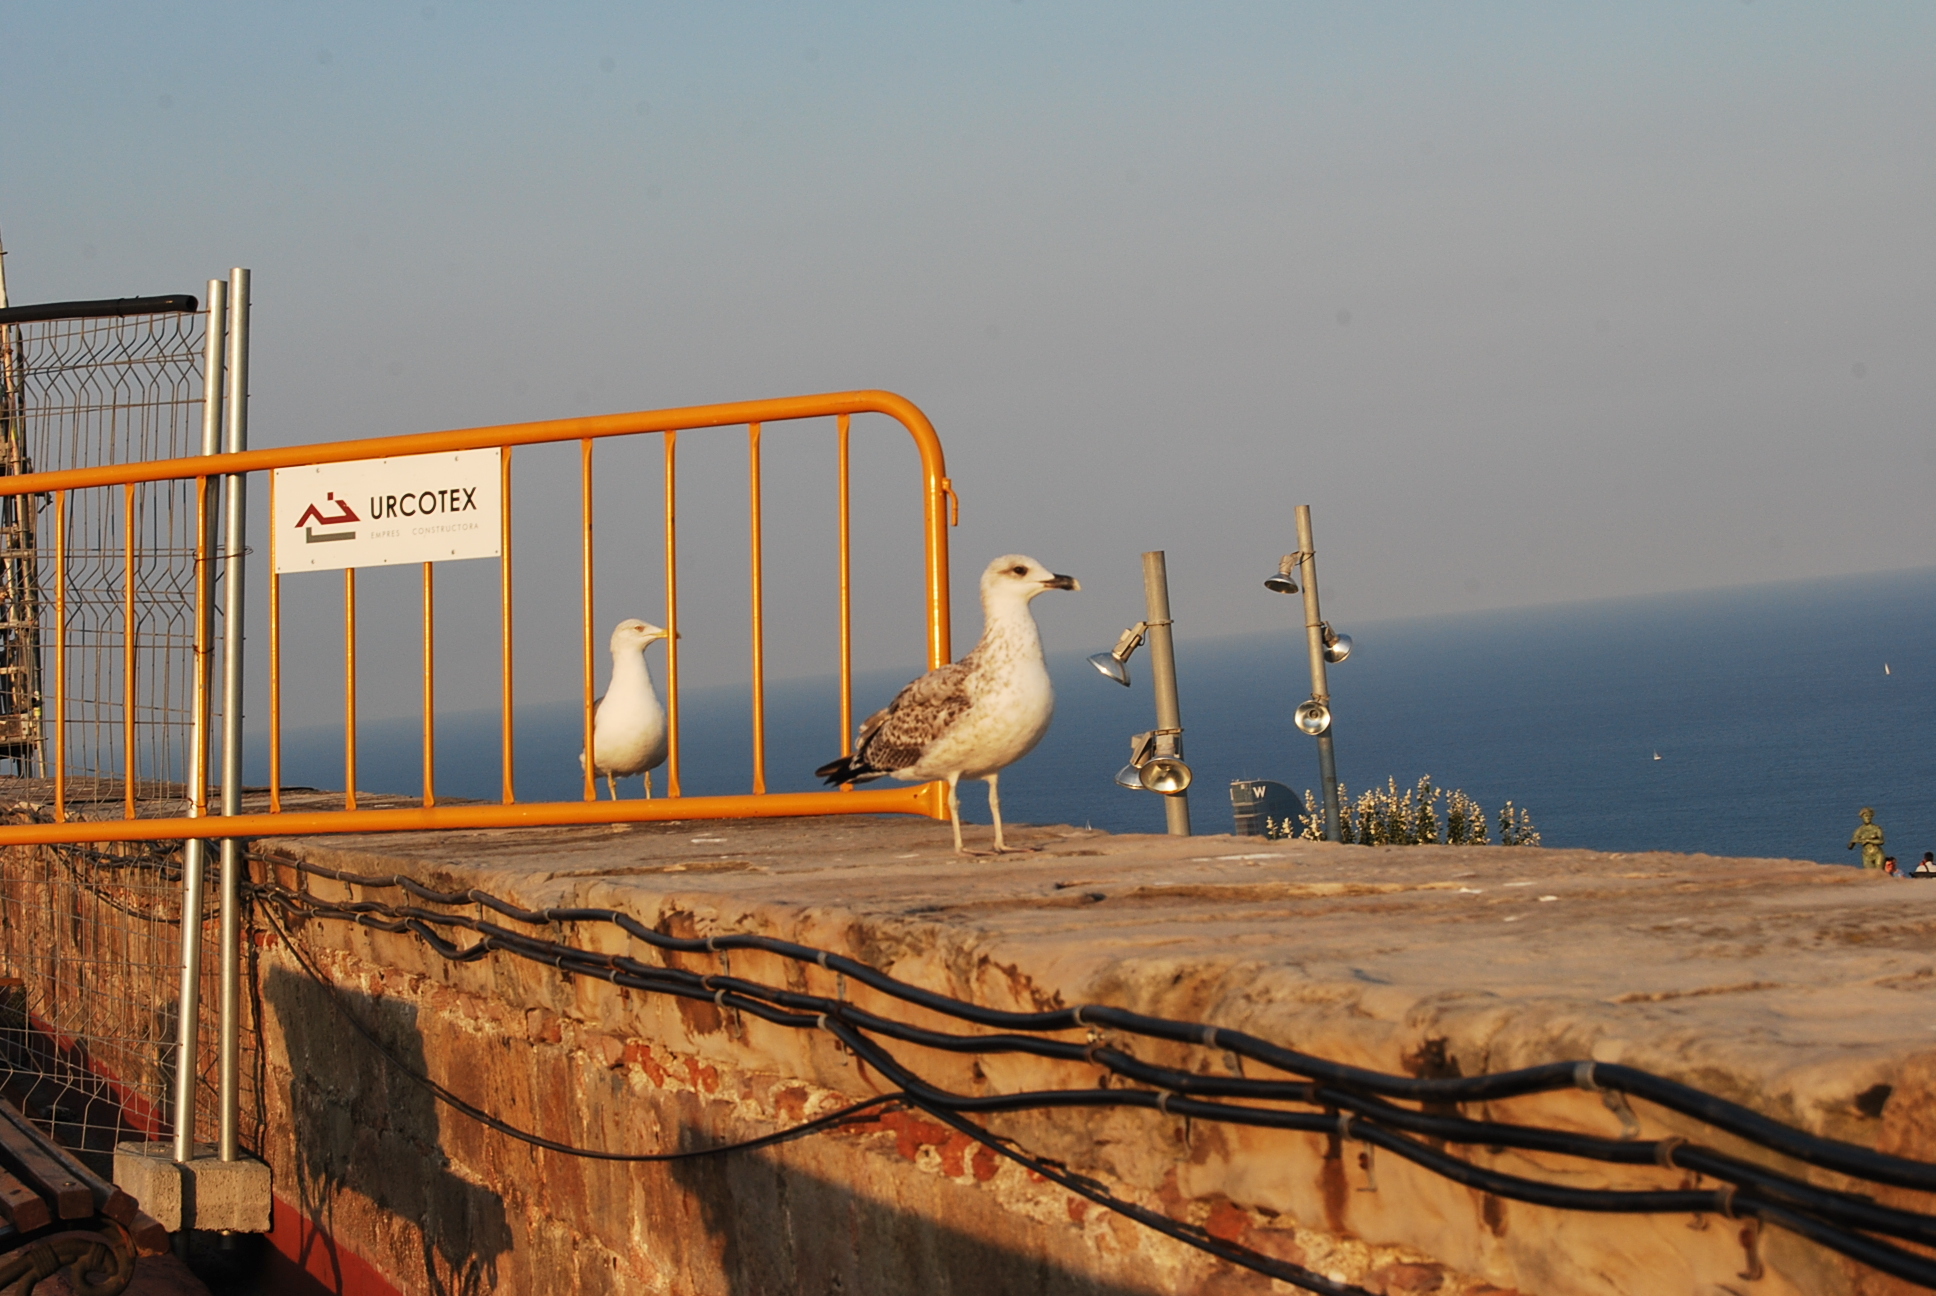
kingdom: Animalia
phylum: Chordata
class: Aves
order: Charadriiformes
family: Laridae
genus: Larus
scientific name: Larus michahellis
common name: Yellow-legged gull
